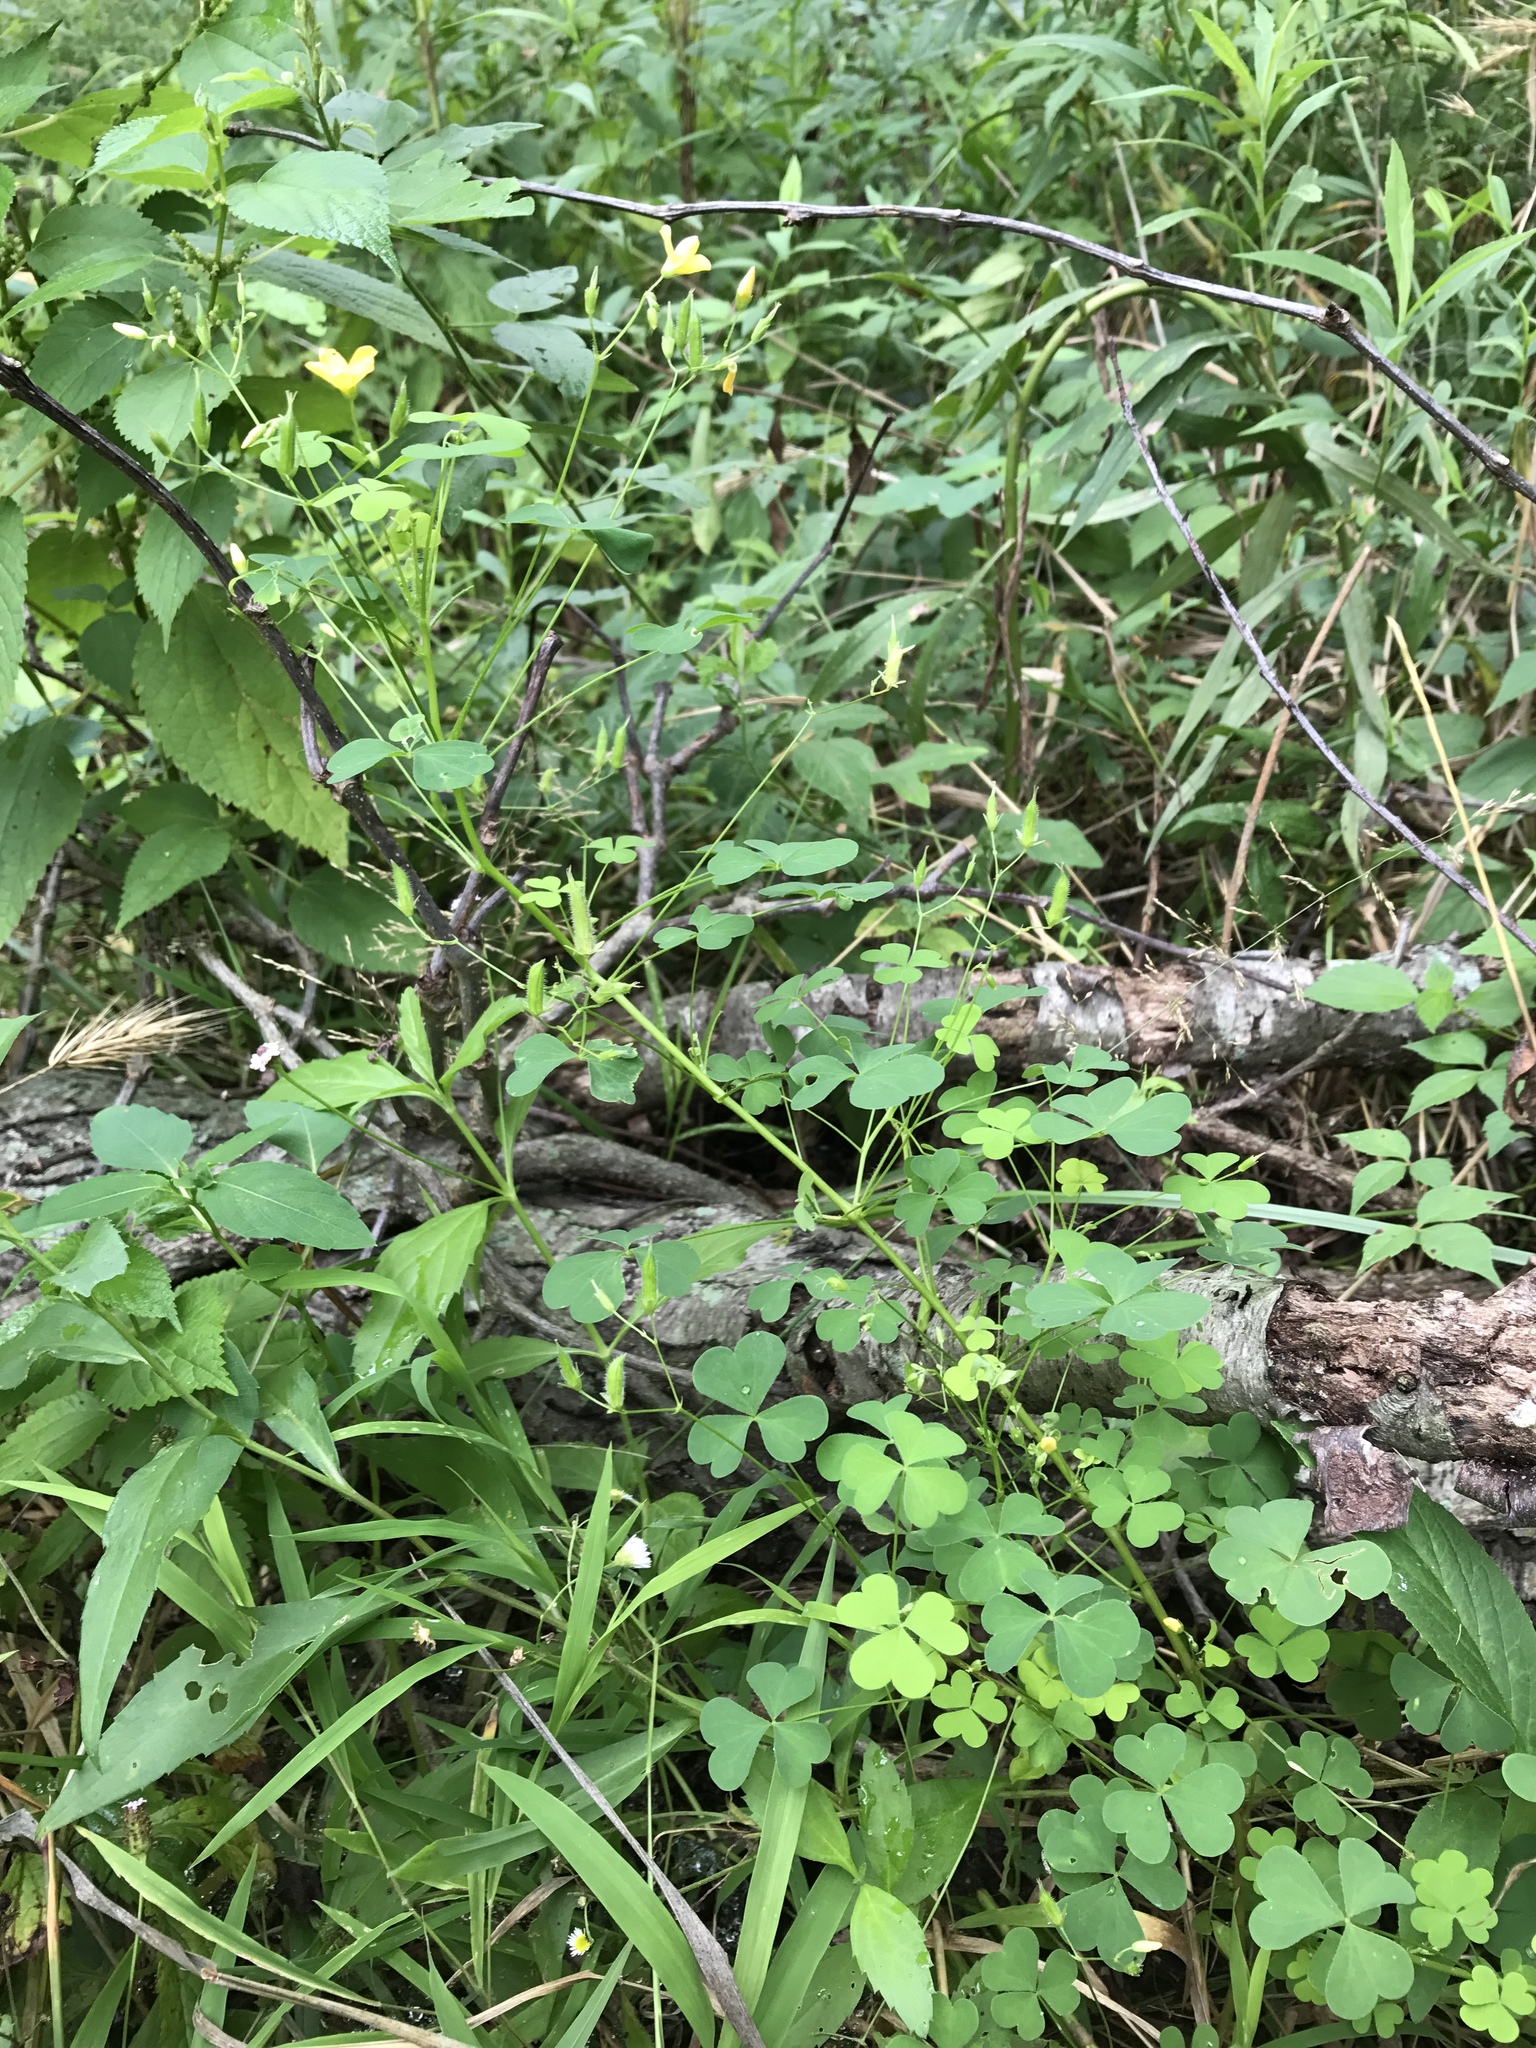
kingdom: Plantae
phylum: Tracheophyta
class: Magnoliopsida
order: Oxalidales
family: Oxalidaceae
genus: Oxalis
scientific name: Oxalis stricta
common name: Upright yellow-sorrel
